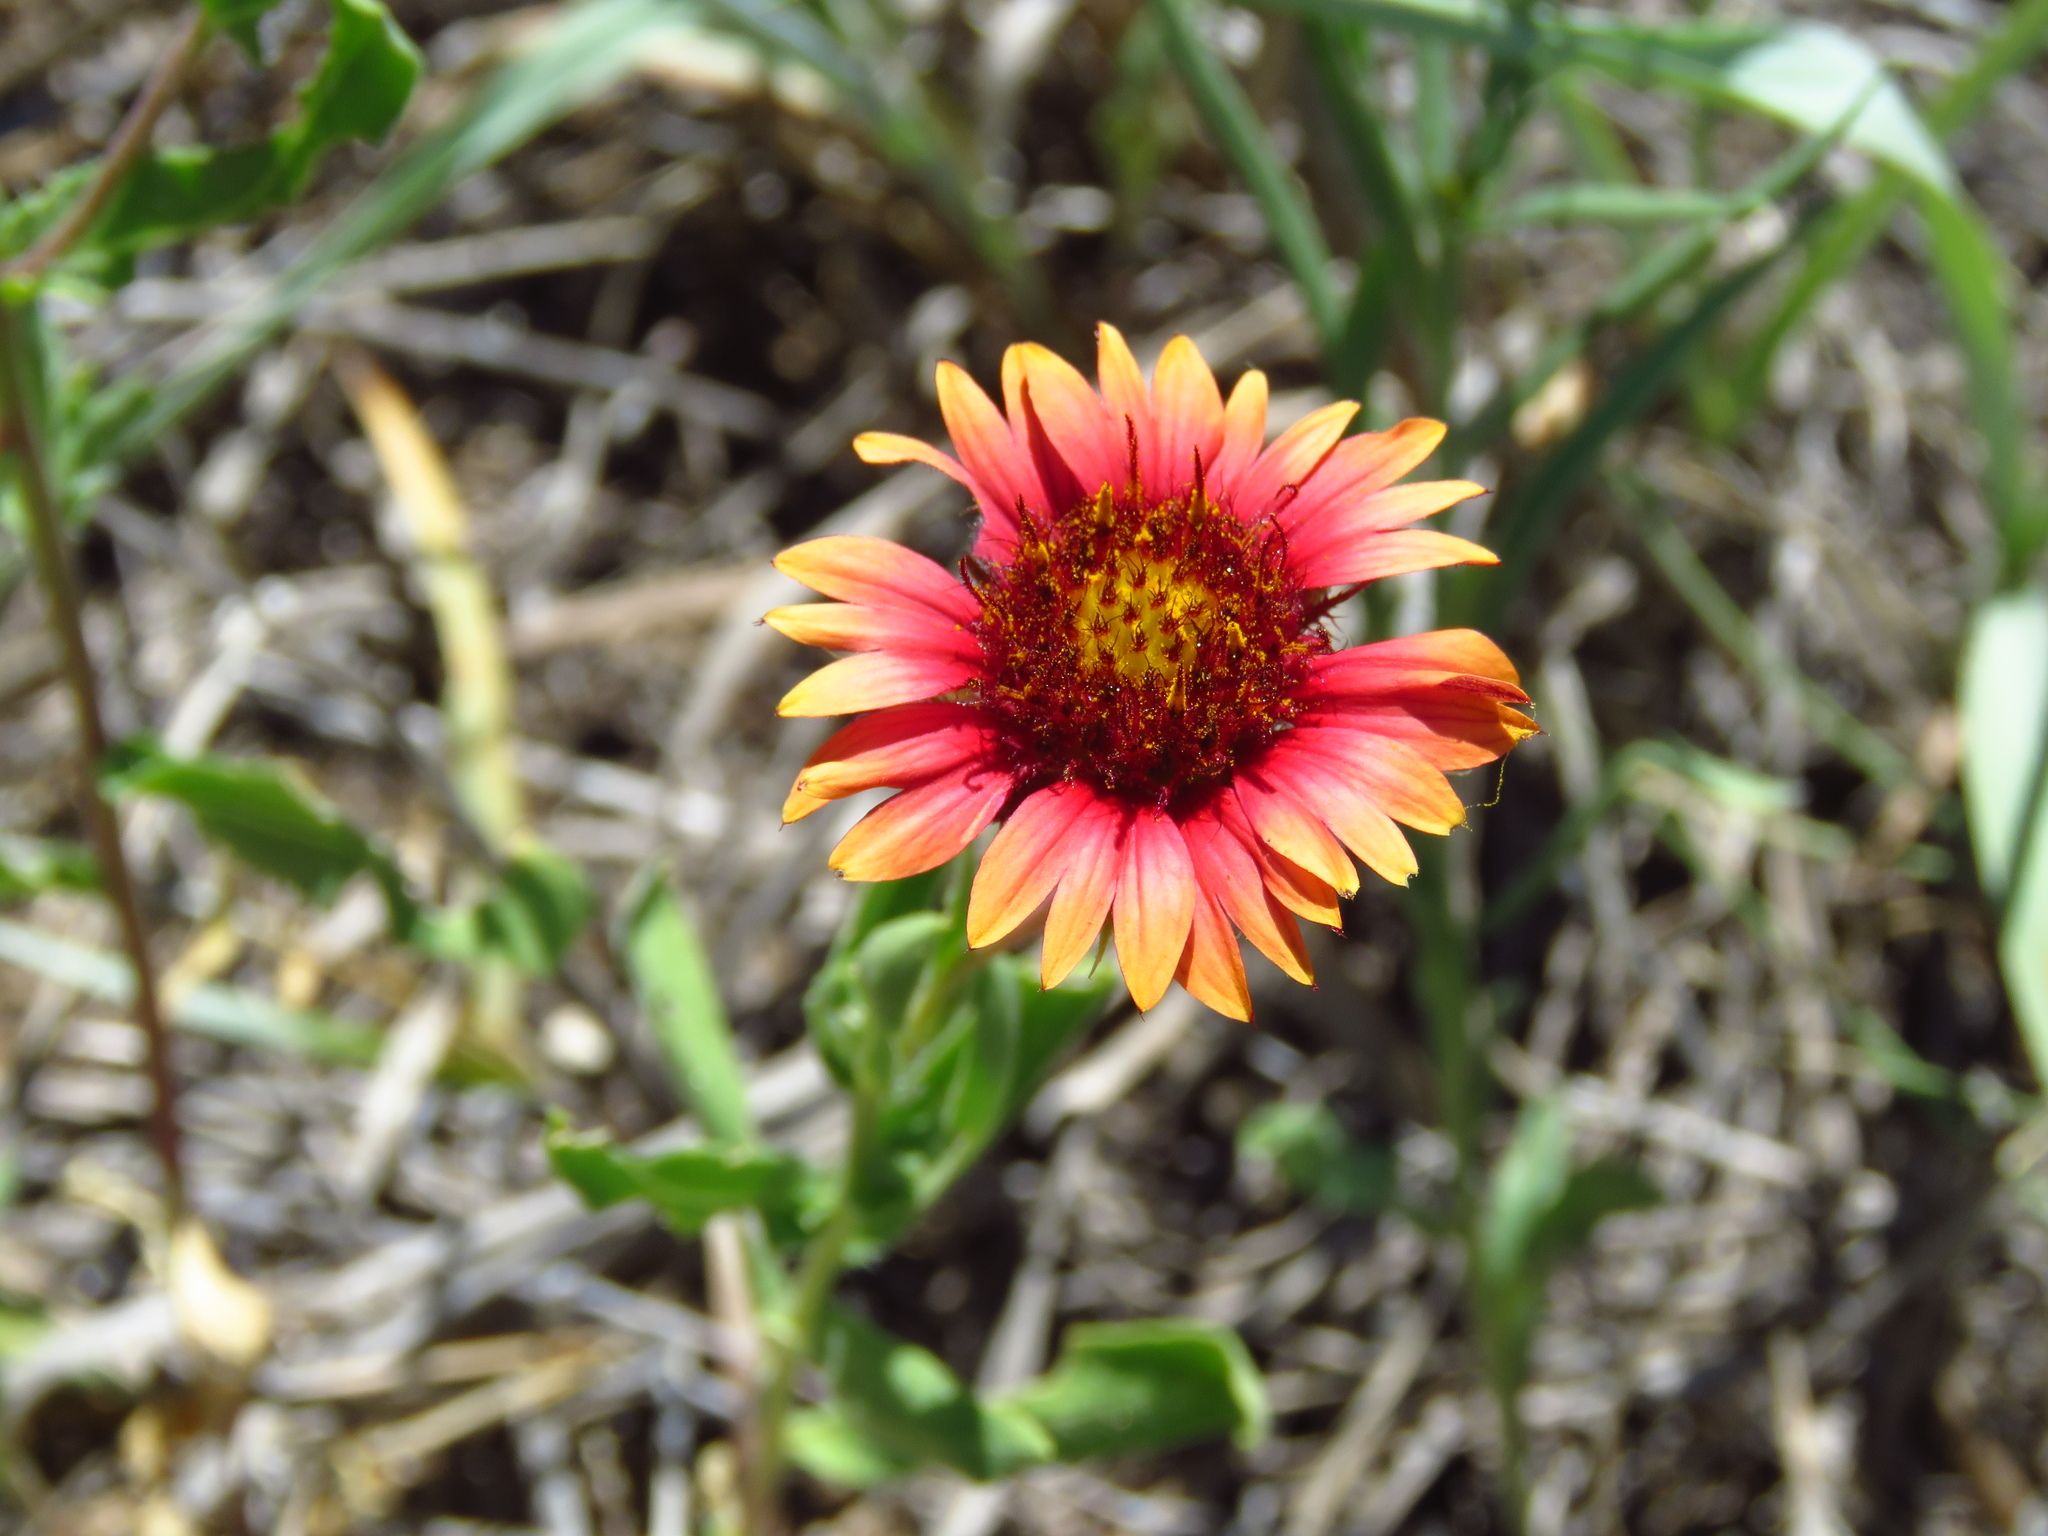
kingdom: Plantae
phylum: Tracheophyta
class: Magnoliopsida
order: Asterales
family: Asteraceae
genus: Gaillardia
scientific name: Gaillardia pulchella
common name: Firewheel
